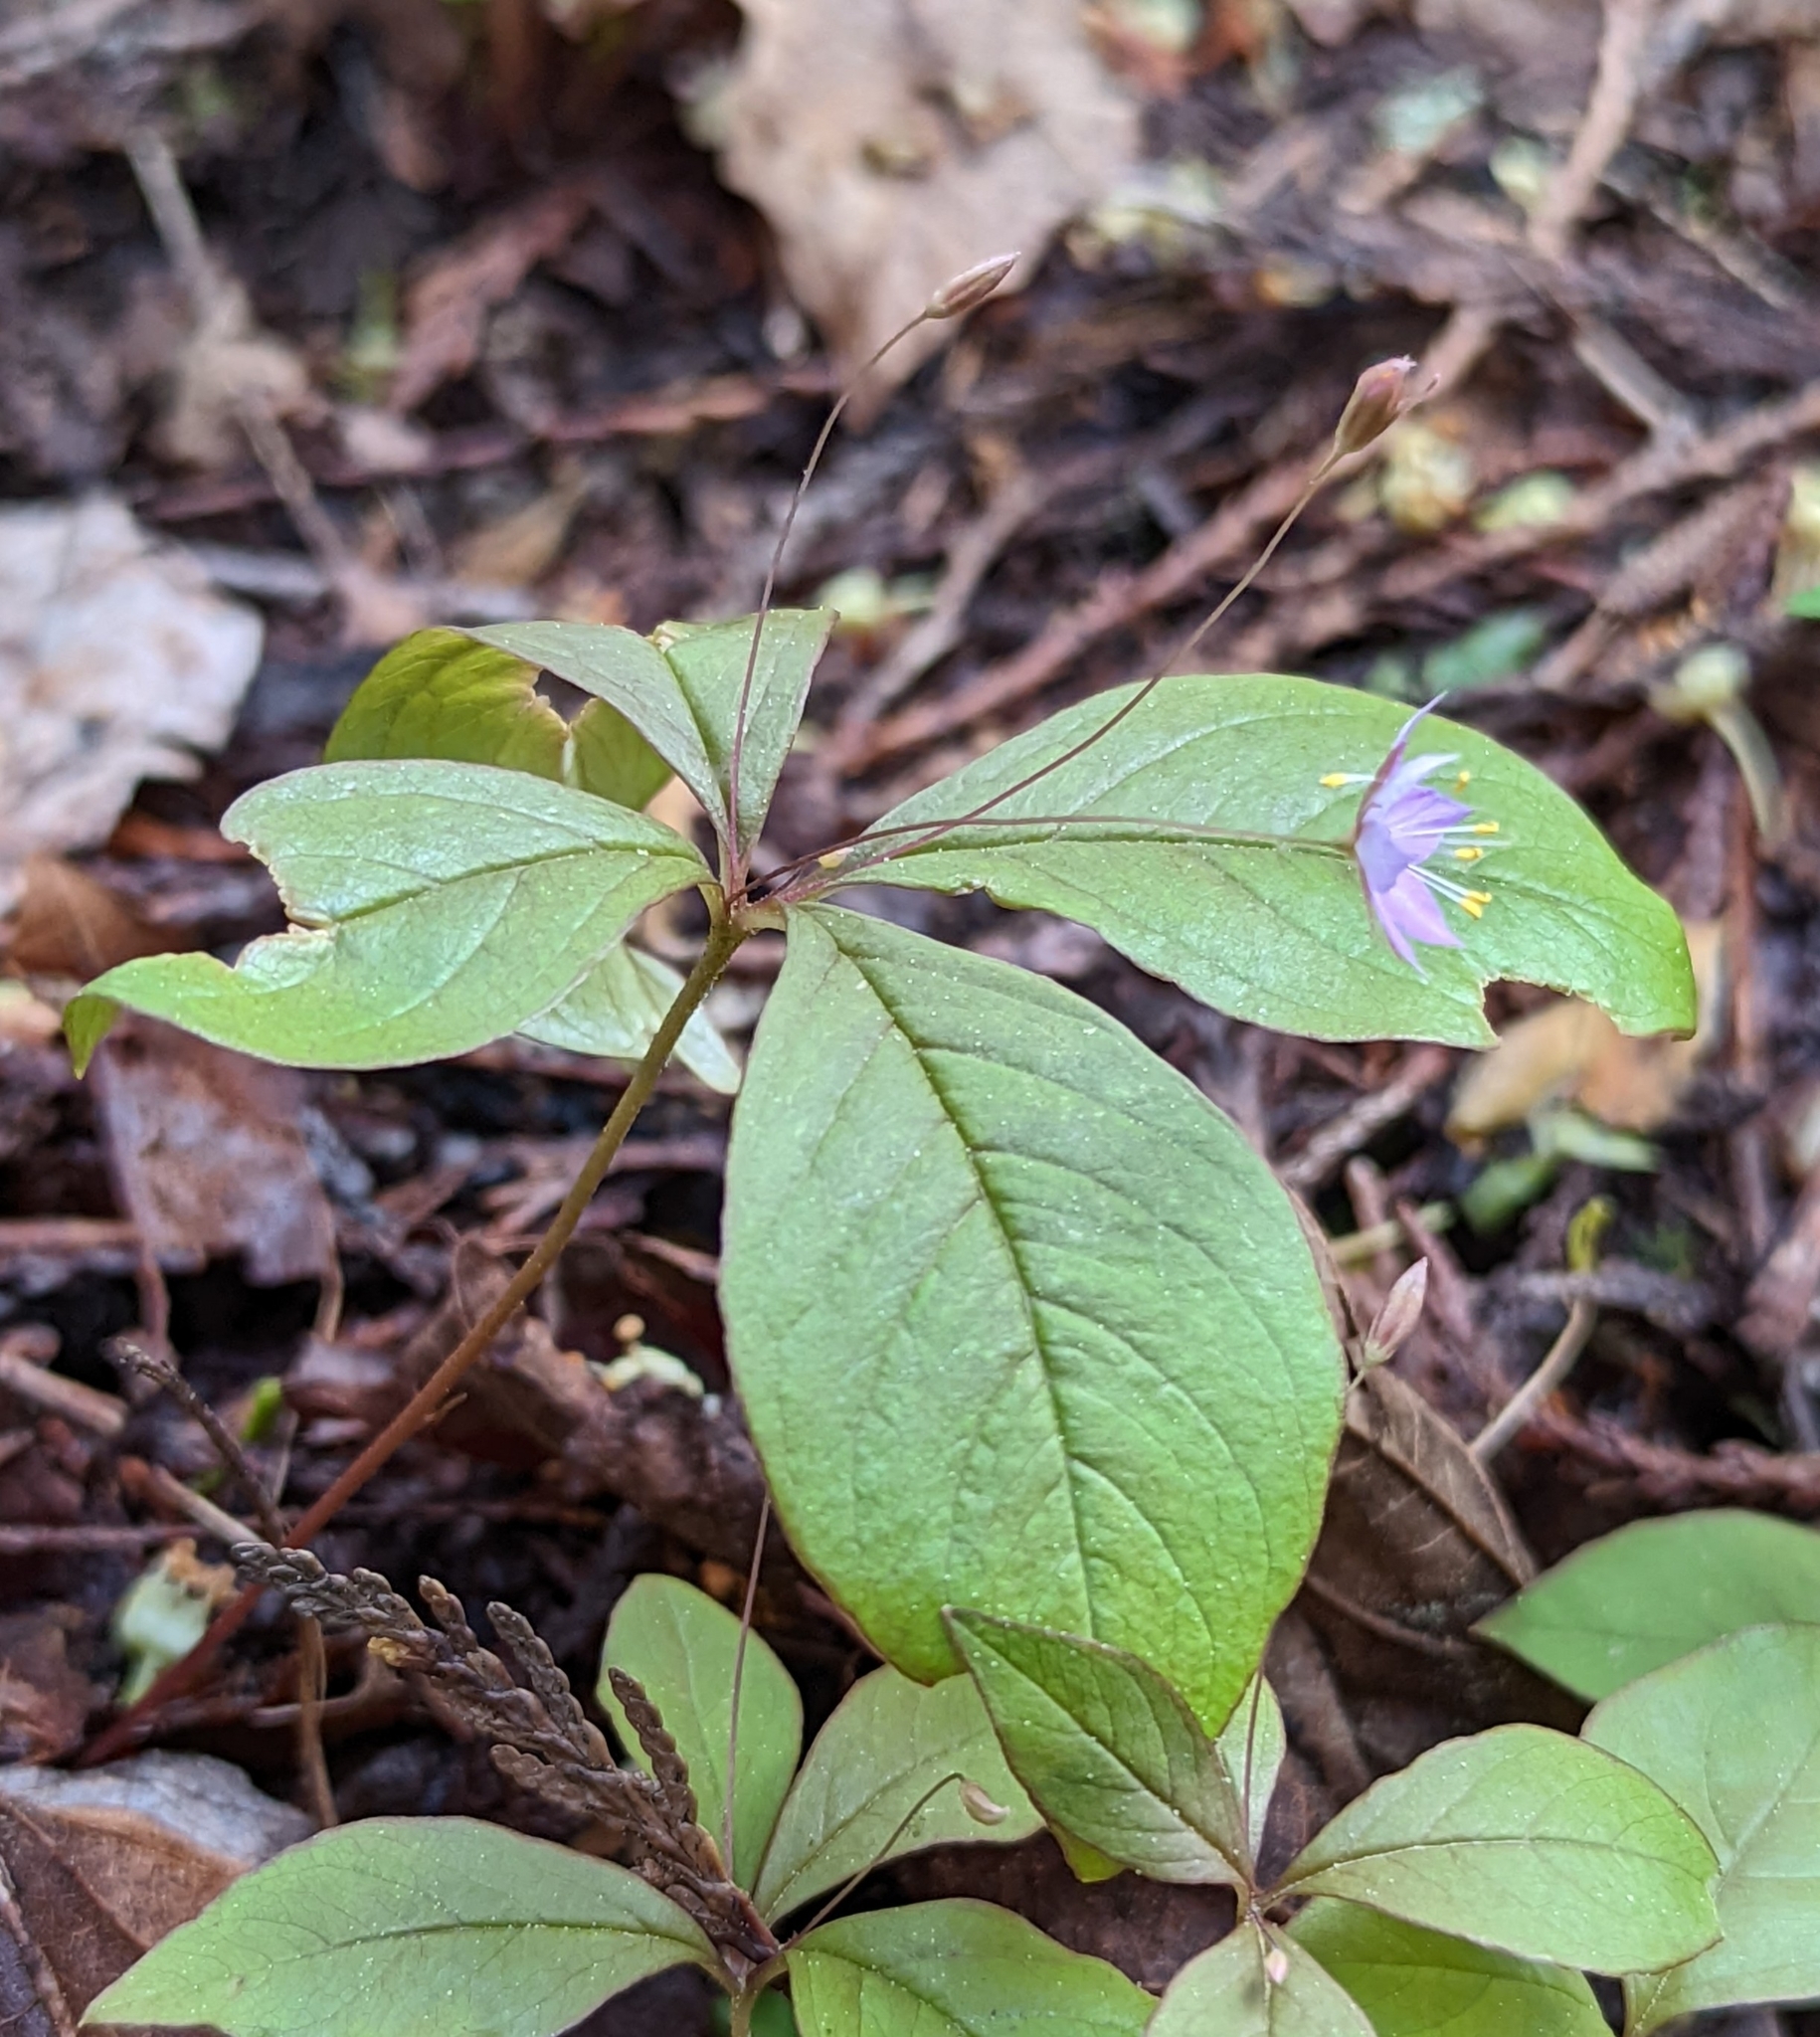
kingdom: Plantae
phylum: Tracheophyta
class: Magnoliopsida
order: Ericales
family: Primulaceae
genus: Lysimachia
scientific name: Lysimachia latifolia
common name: Pacific starflower
